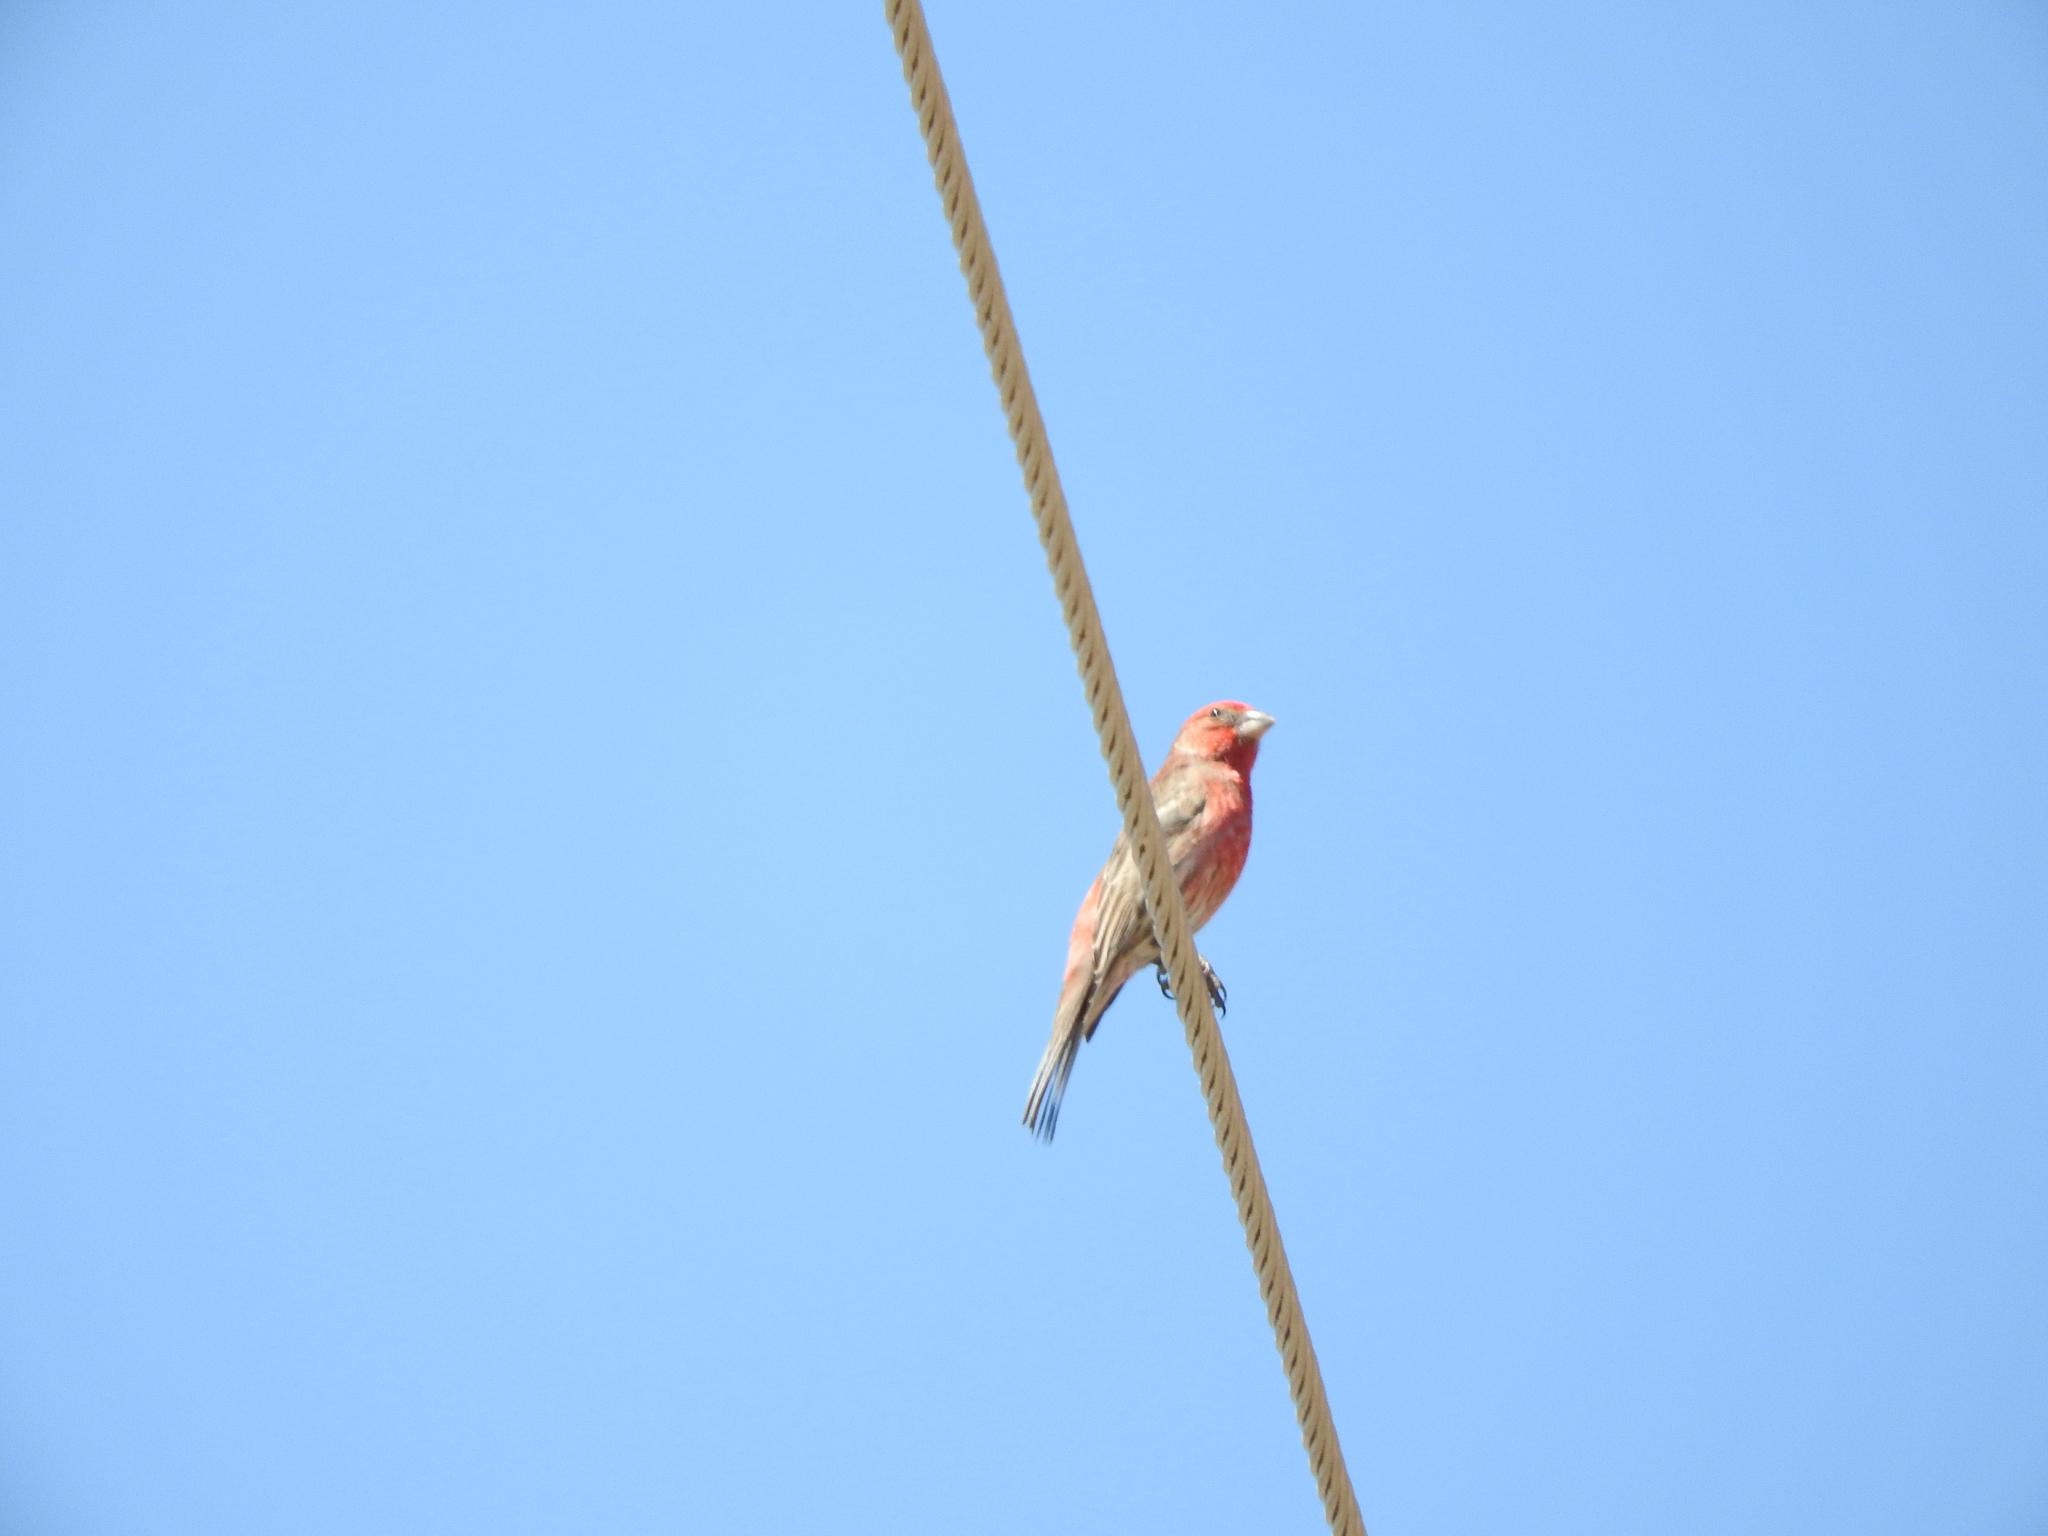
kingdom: Animalia
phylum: Chordata
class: Aves
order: Passeriformes
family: Fringillidae
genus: Haemorhous
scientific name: Haemorhous mexicanus
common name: House finch
